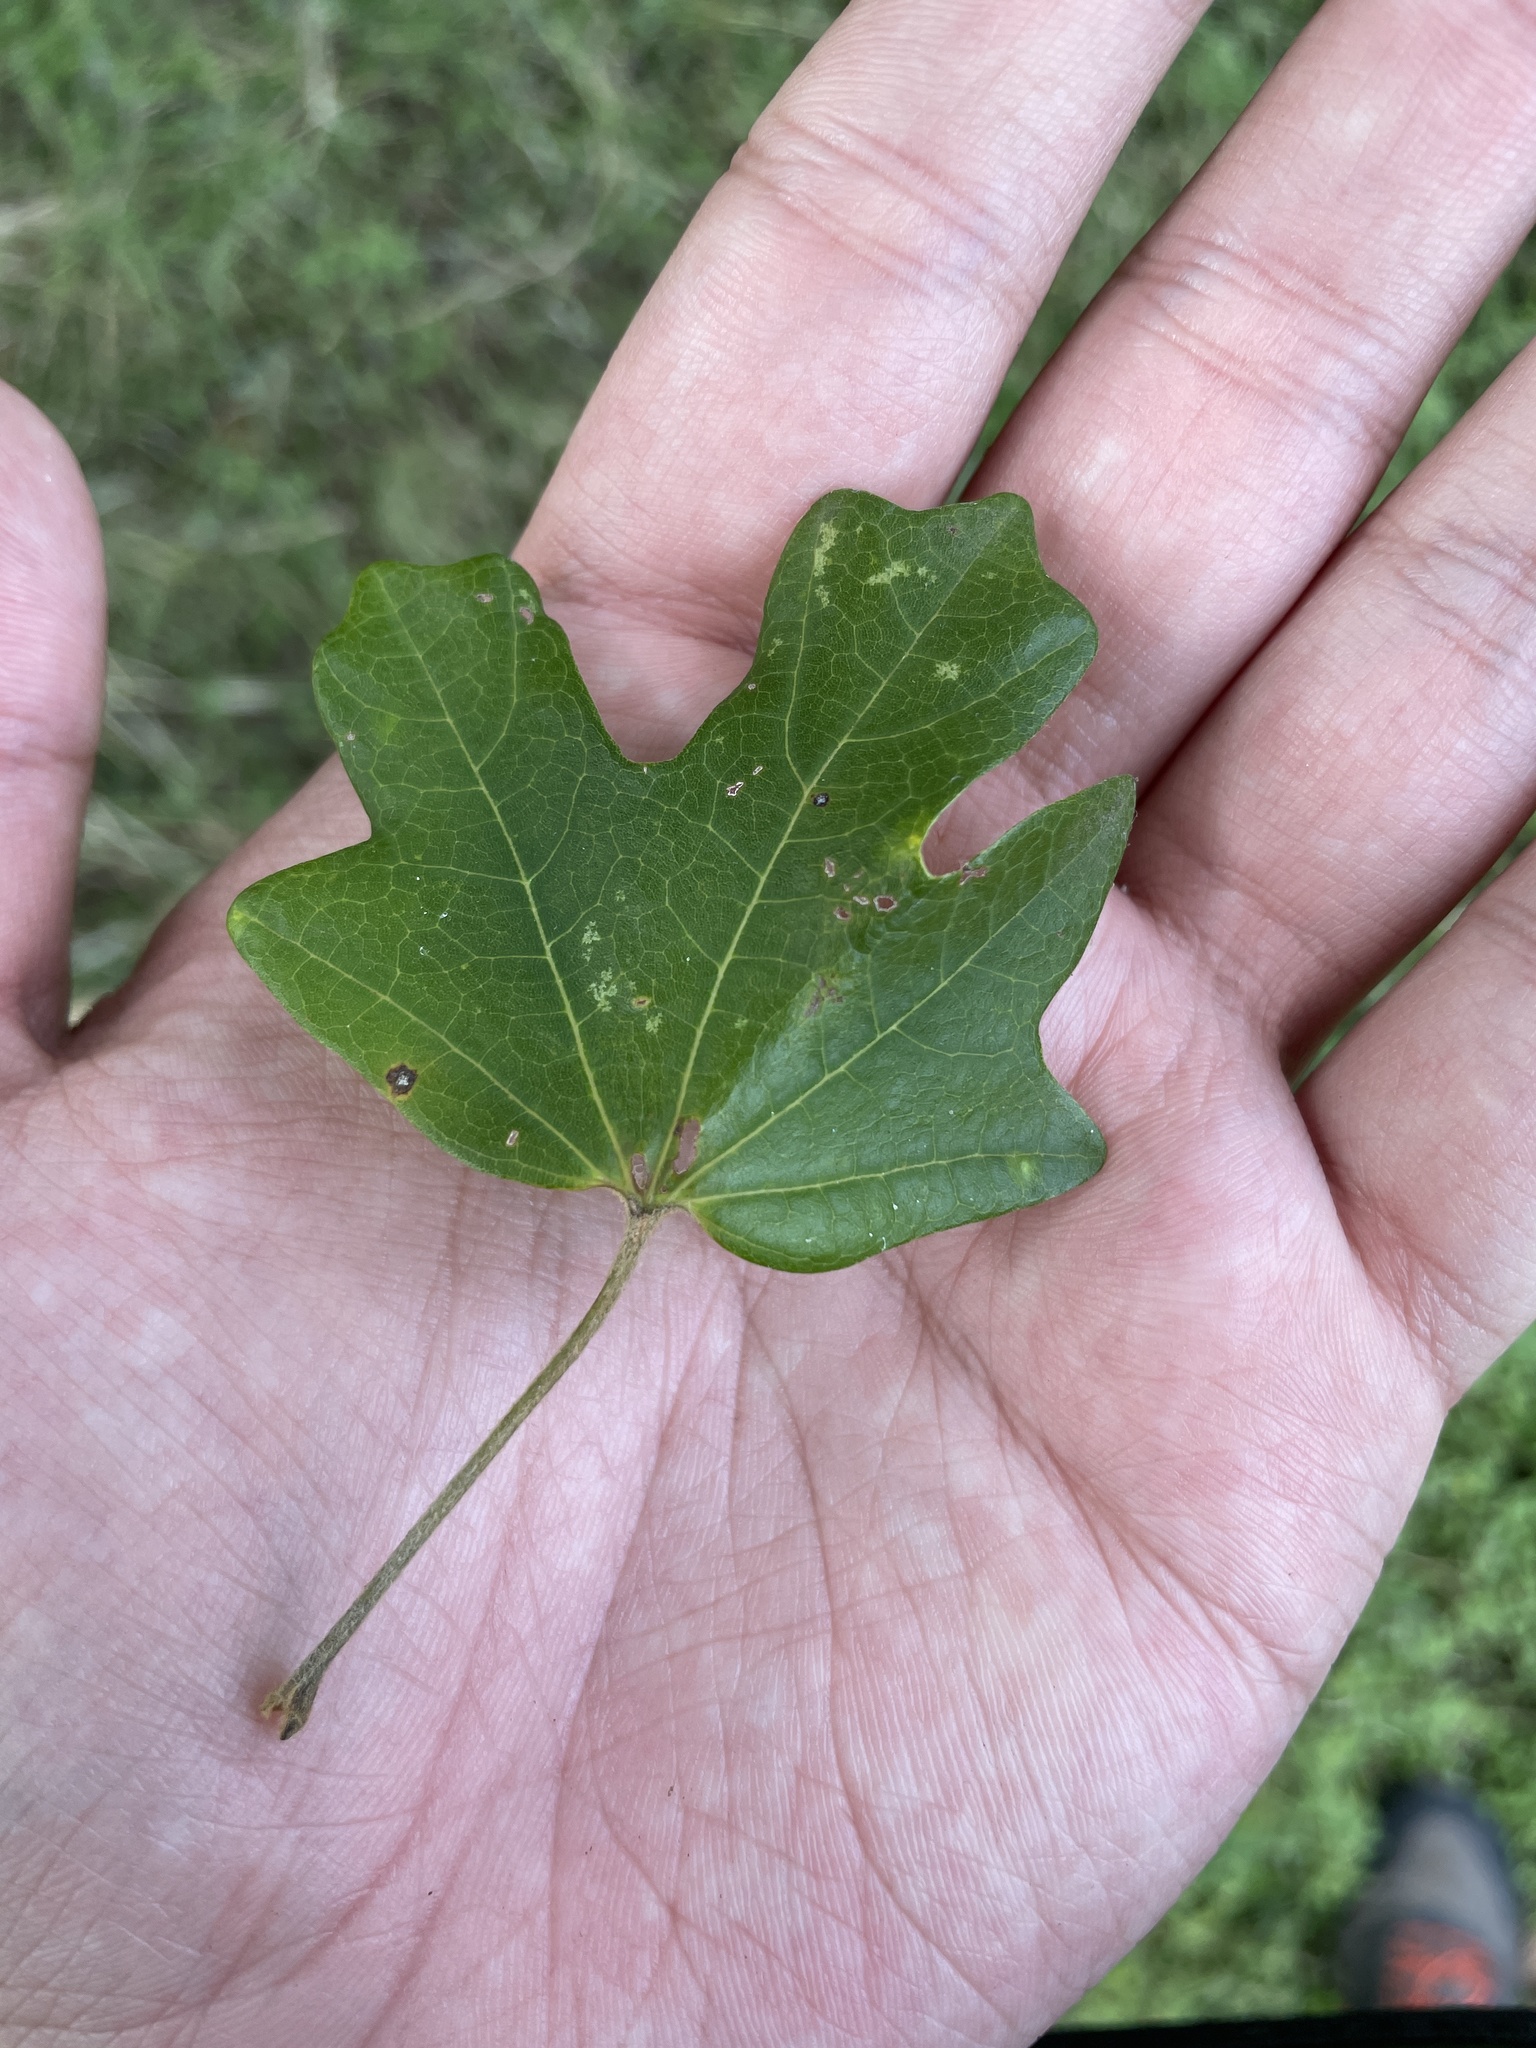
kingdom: Plantae
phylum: Tracheophyta
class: Magnoliopsida
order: Sapindales
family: Sapindaceae
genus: Acer
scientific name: Acer grandidentatum
